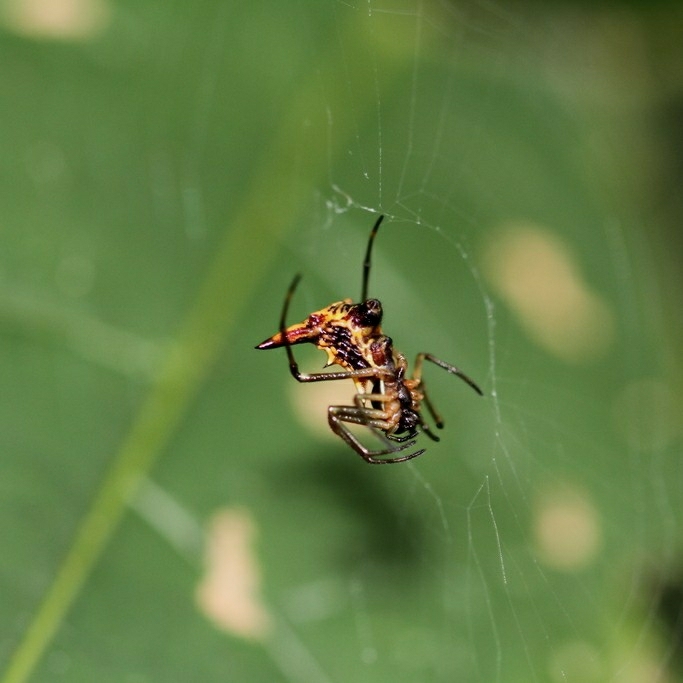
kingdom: Animalia
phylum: Arthropoda
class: Arachnida
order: Araneae
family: Araneidae
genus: Micrathena
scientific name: Micrathena acuta
